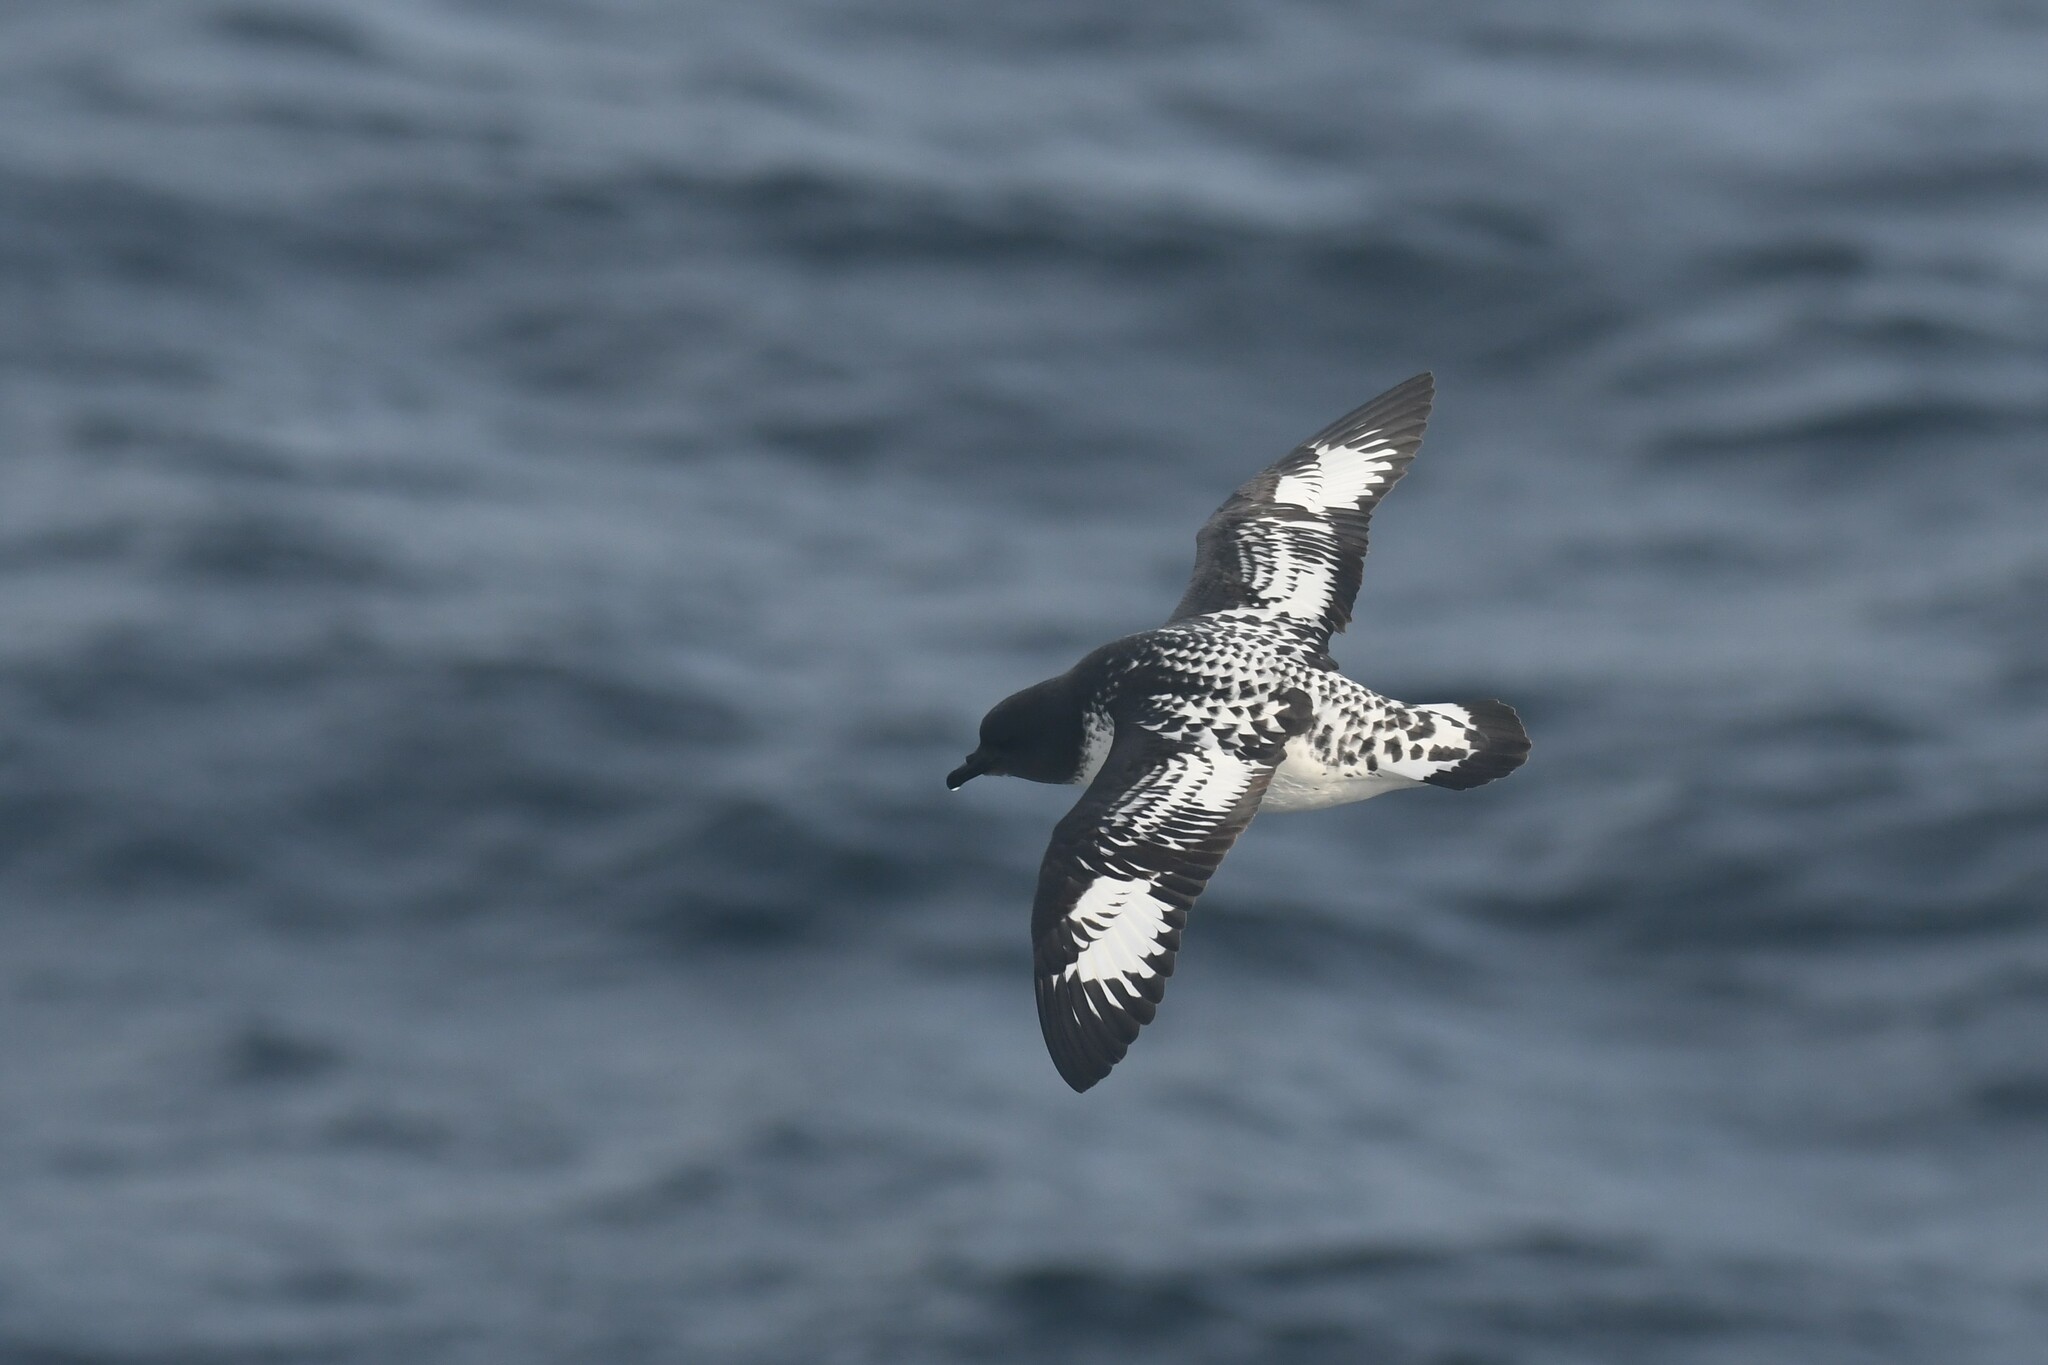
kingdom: Animalia
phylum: Chordata
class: Aves
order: Procellariiformes
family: Procellariidae
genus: Daption
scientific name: Daption capense
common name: Cape petrel
